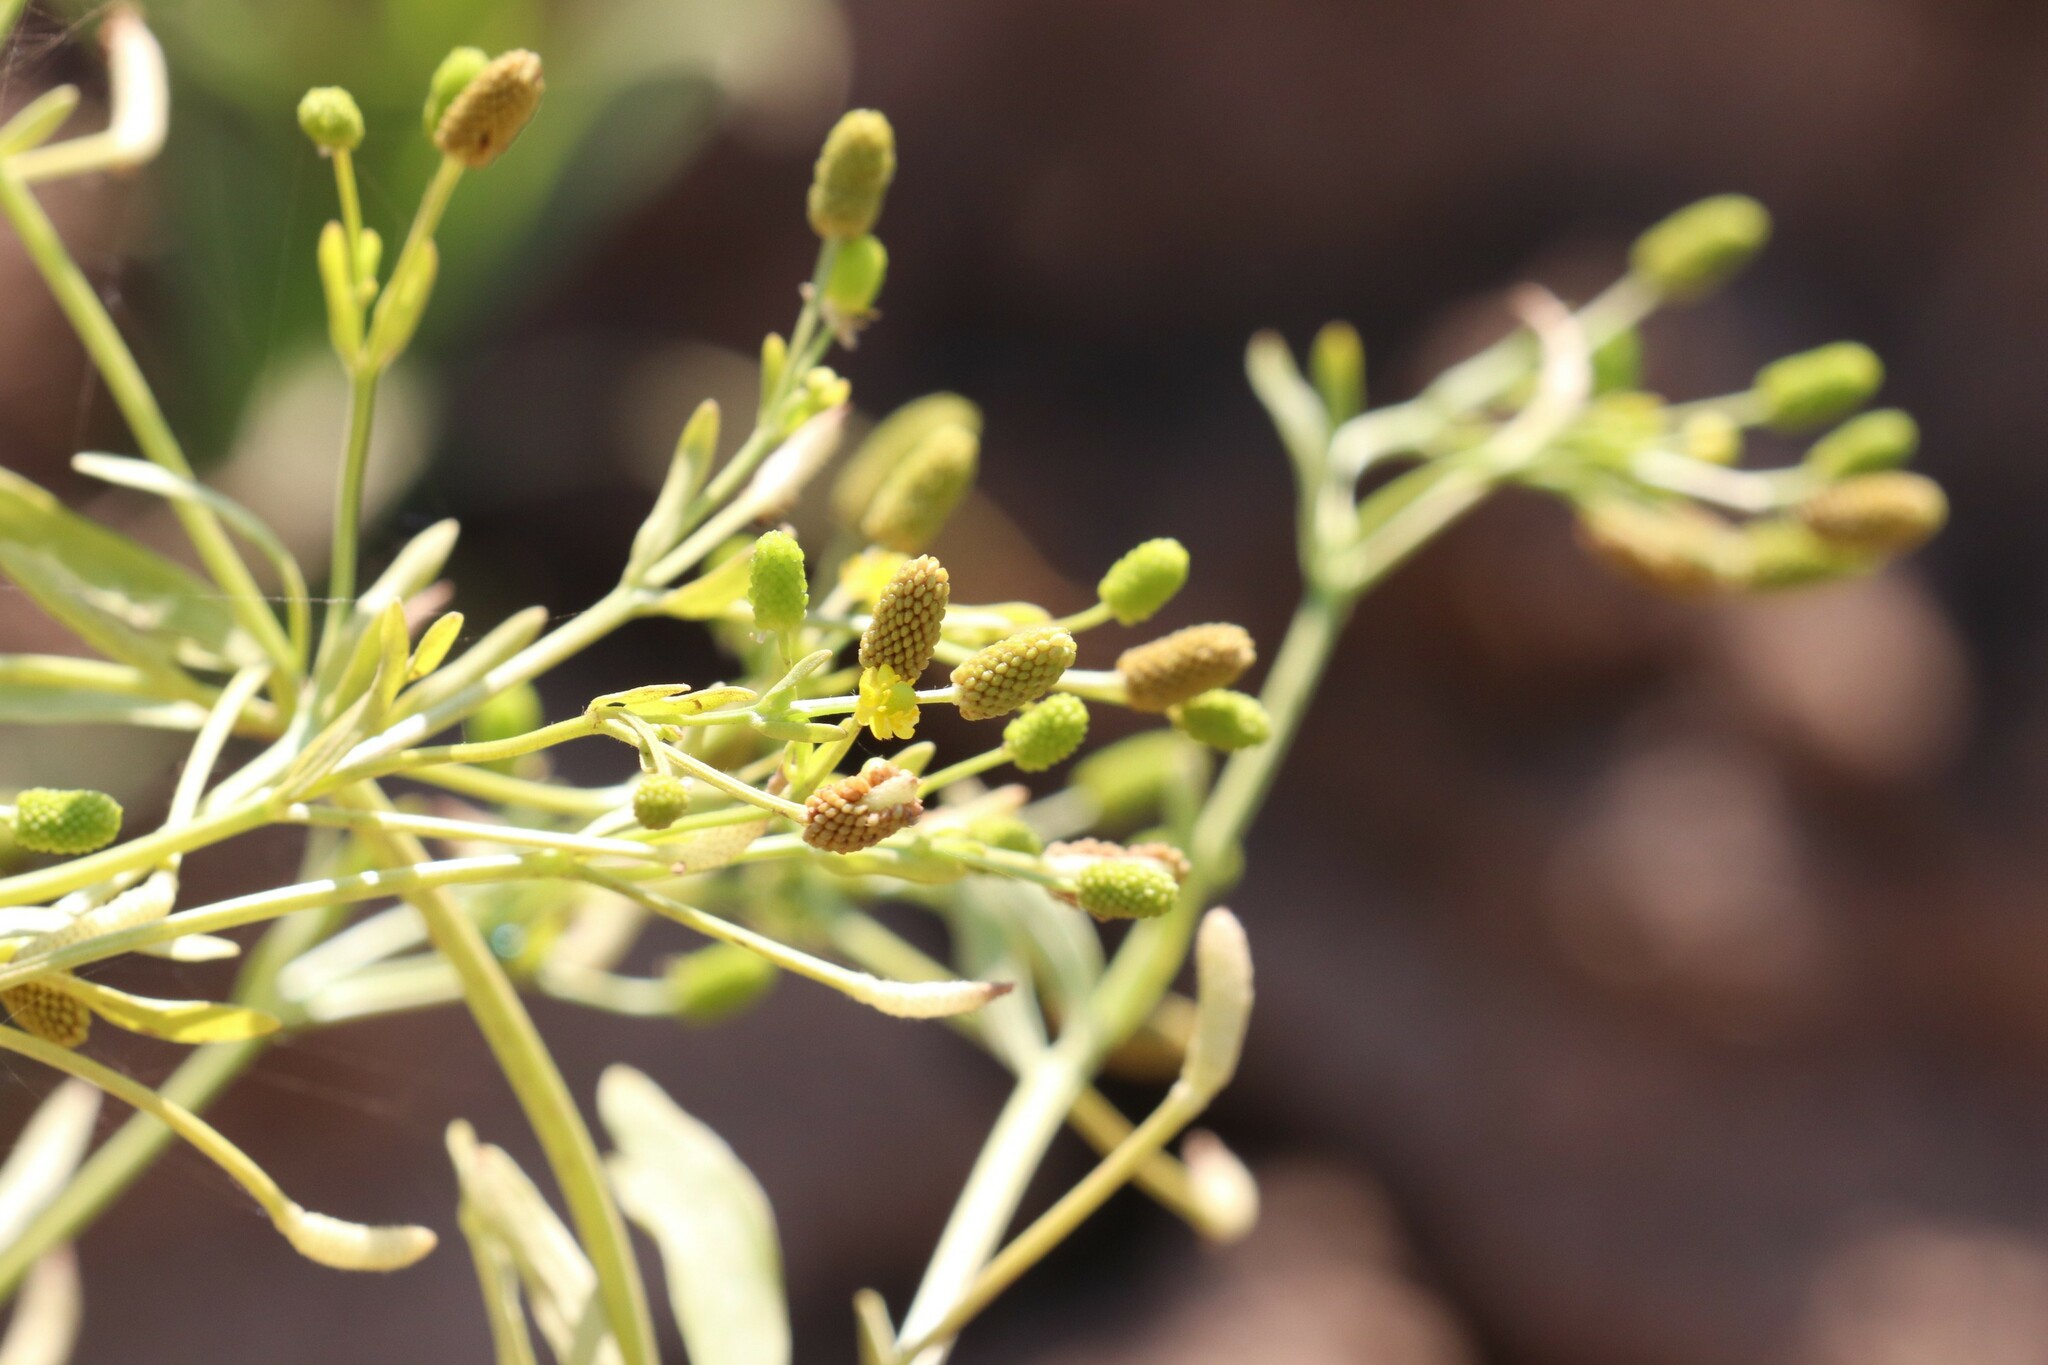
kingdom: Plantae
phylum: Tracheophyta
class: Magnoliopsida
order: Ranunculales
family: Ranunculaceae
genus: Ranunculus
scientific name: Ranunculus sceleratus
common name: Celery-leaved buttercup
